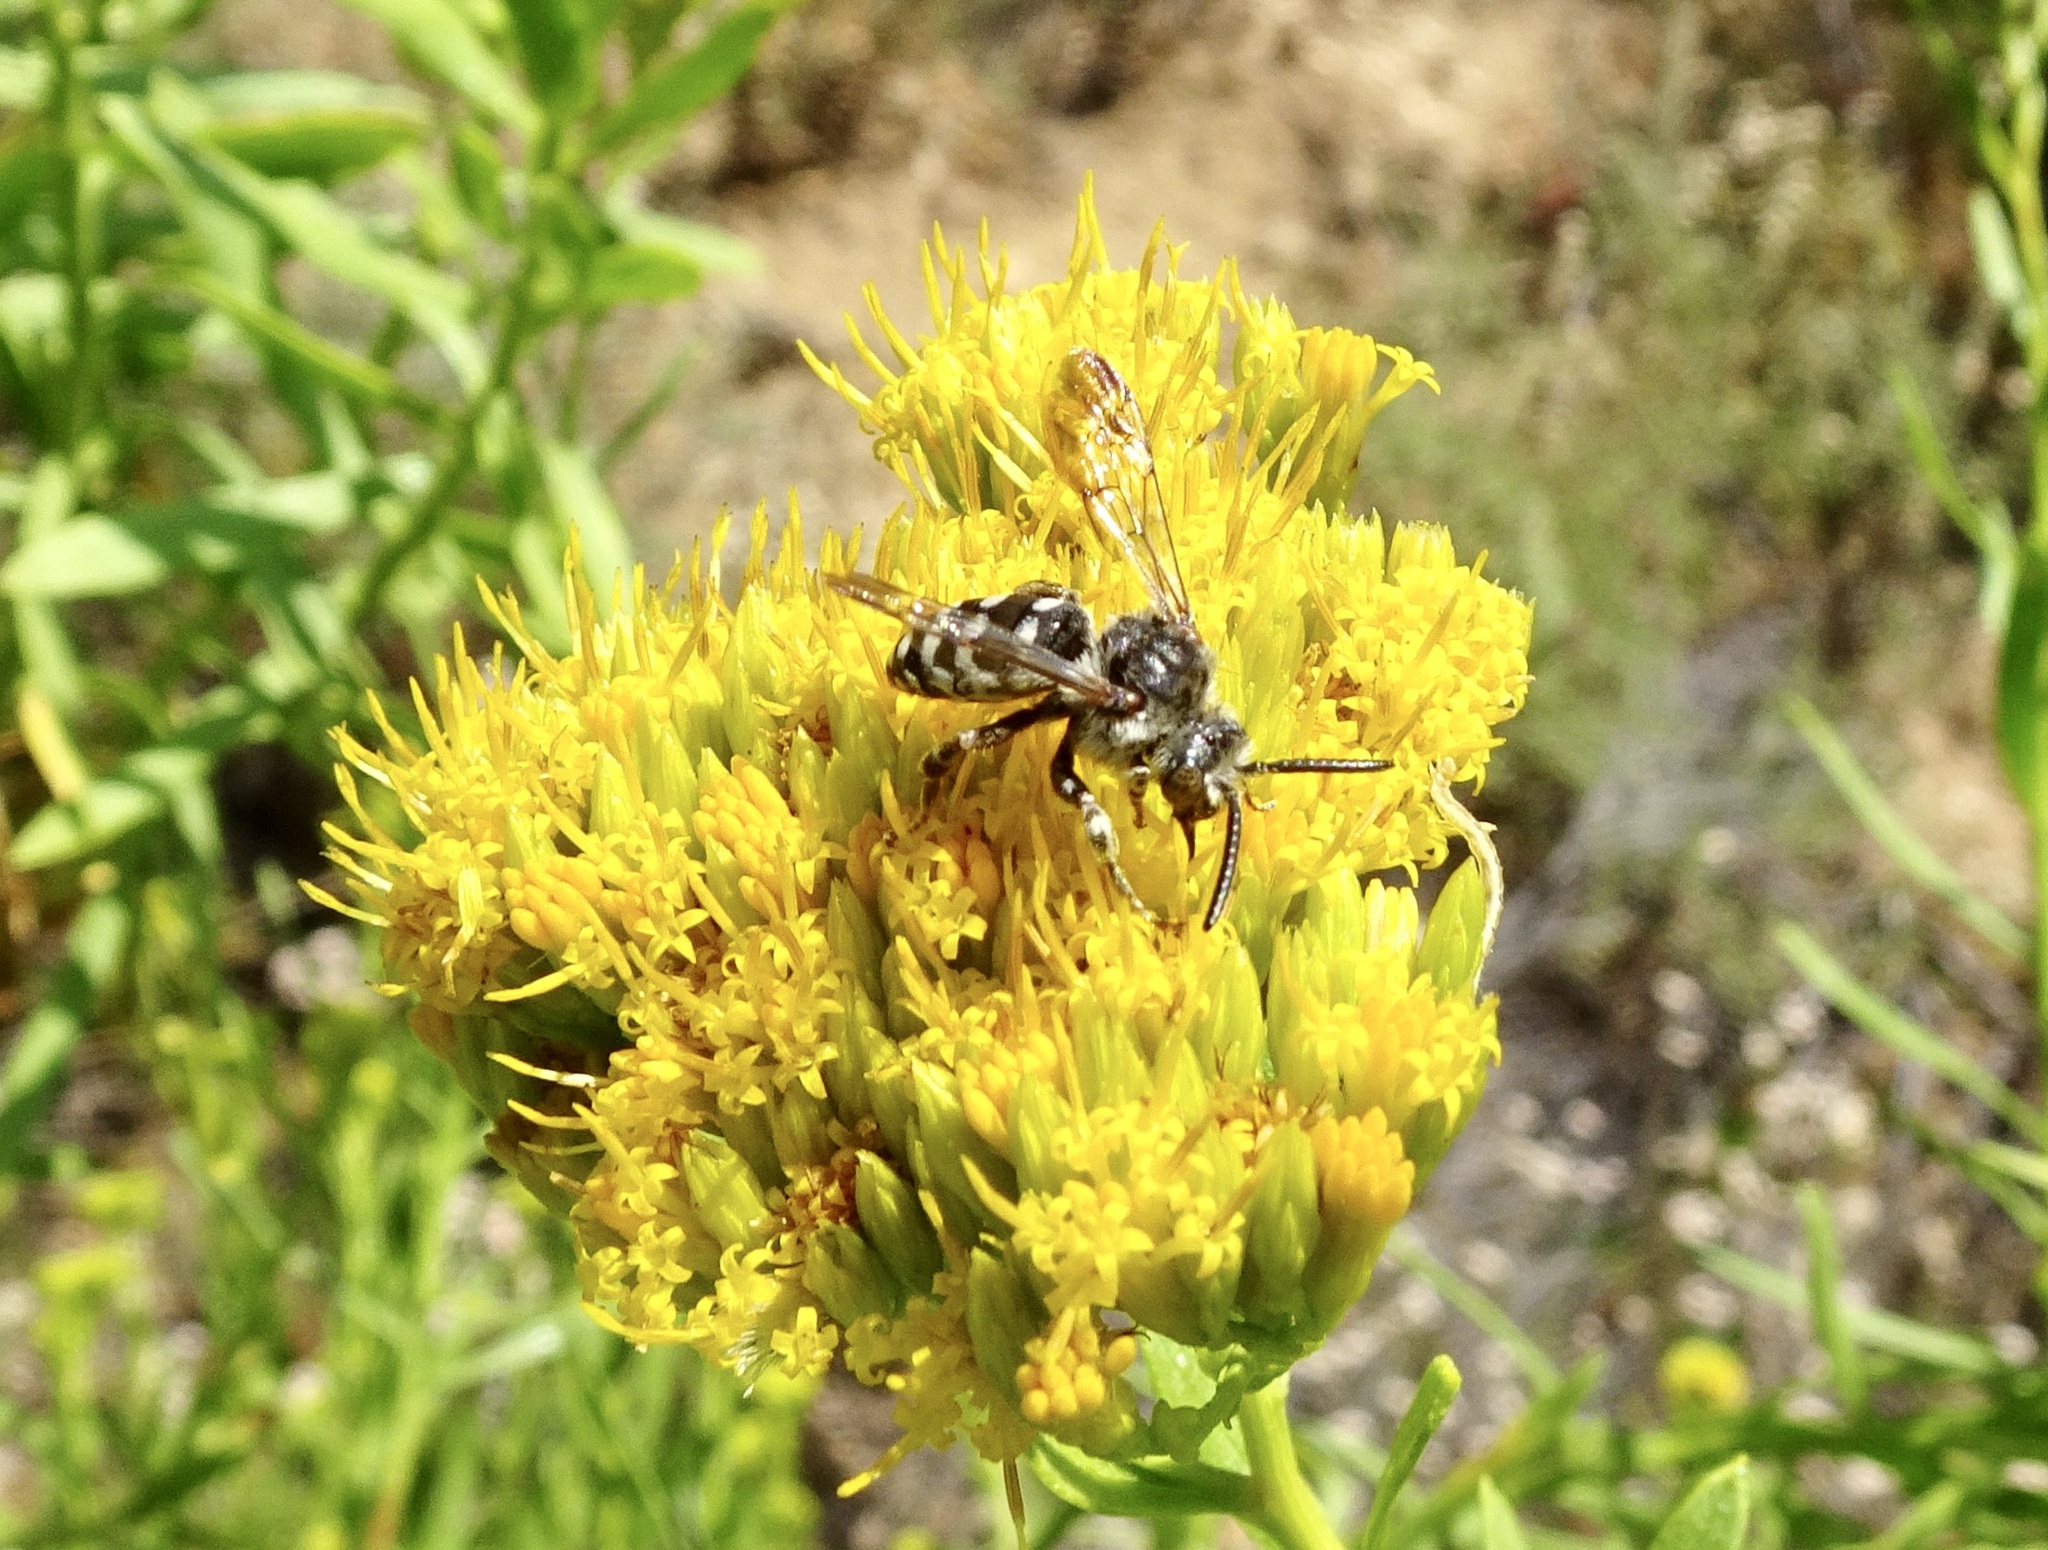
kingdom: Animalia
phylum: Arthropoda
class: Insecta
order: Hymenoptera
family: Apidae
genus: Brachymelecta
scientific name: Brachymelecta californica
